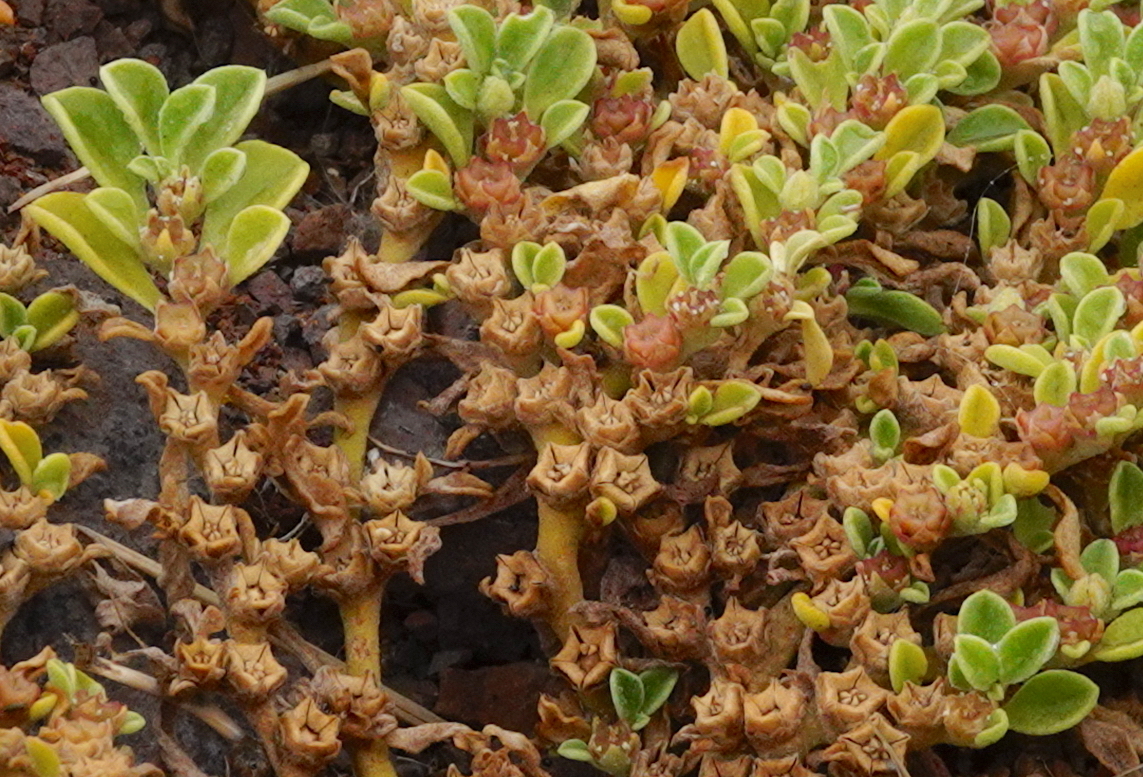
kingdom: Plantae
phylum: Tracheophyta
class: Magnoliopsida
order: Caryophyllales
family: Aizoaceae
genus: Aizoon
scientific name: Aizoon canariense
